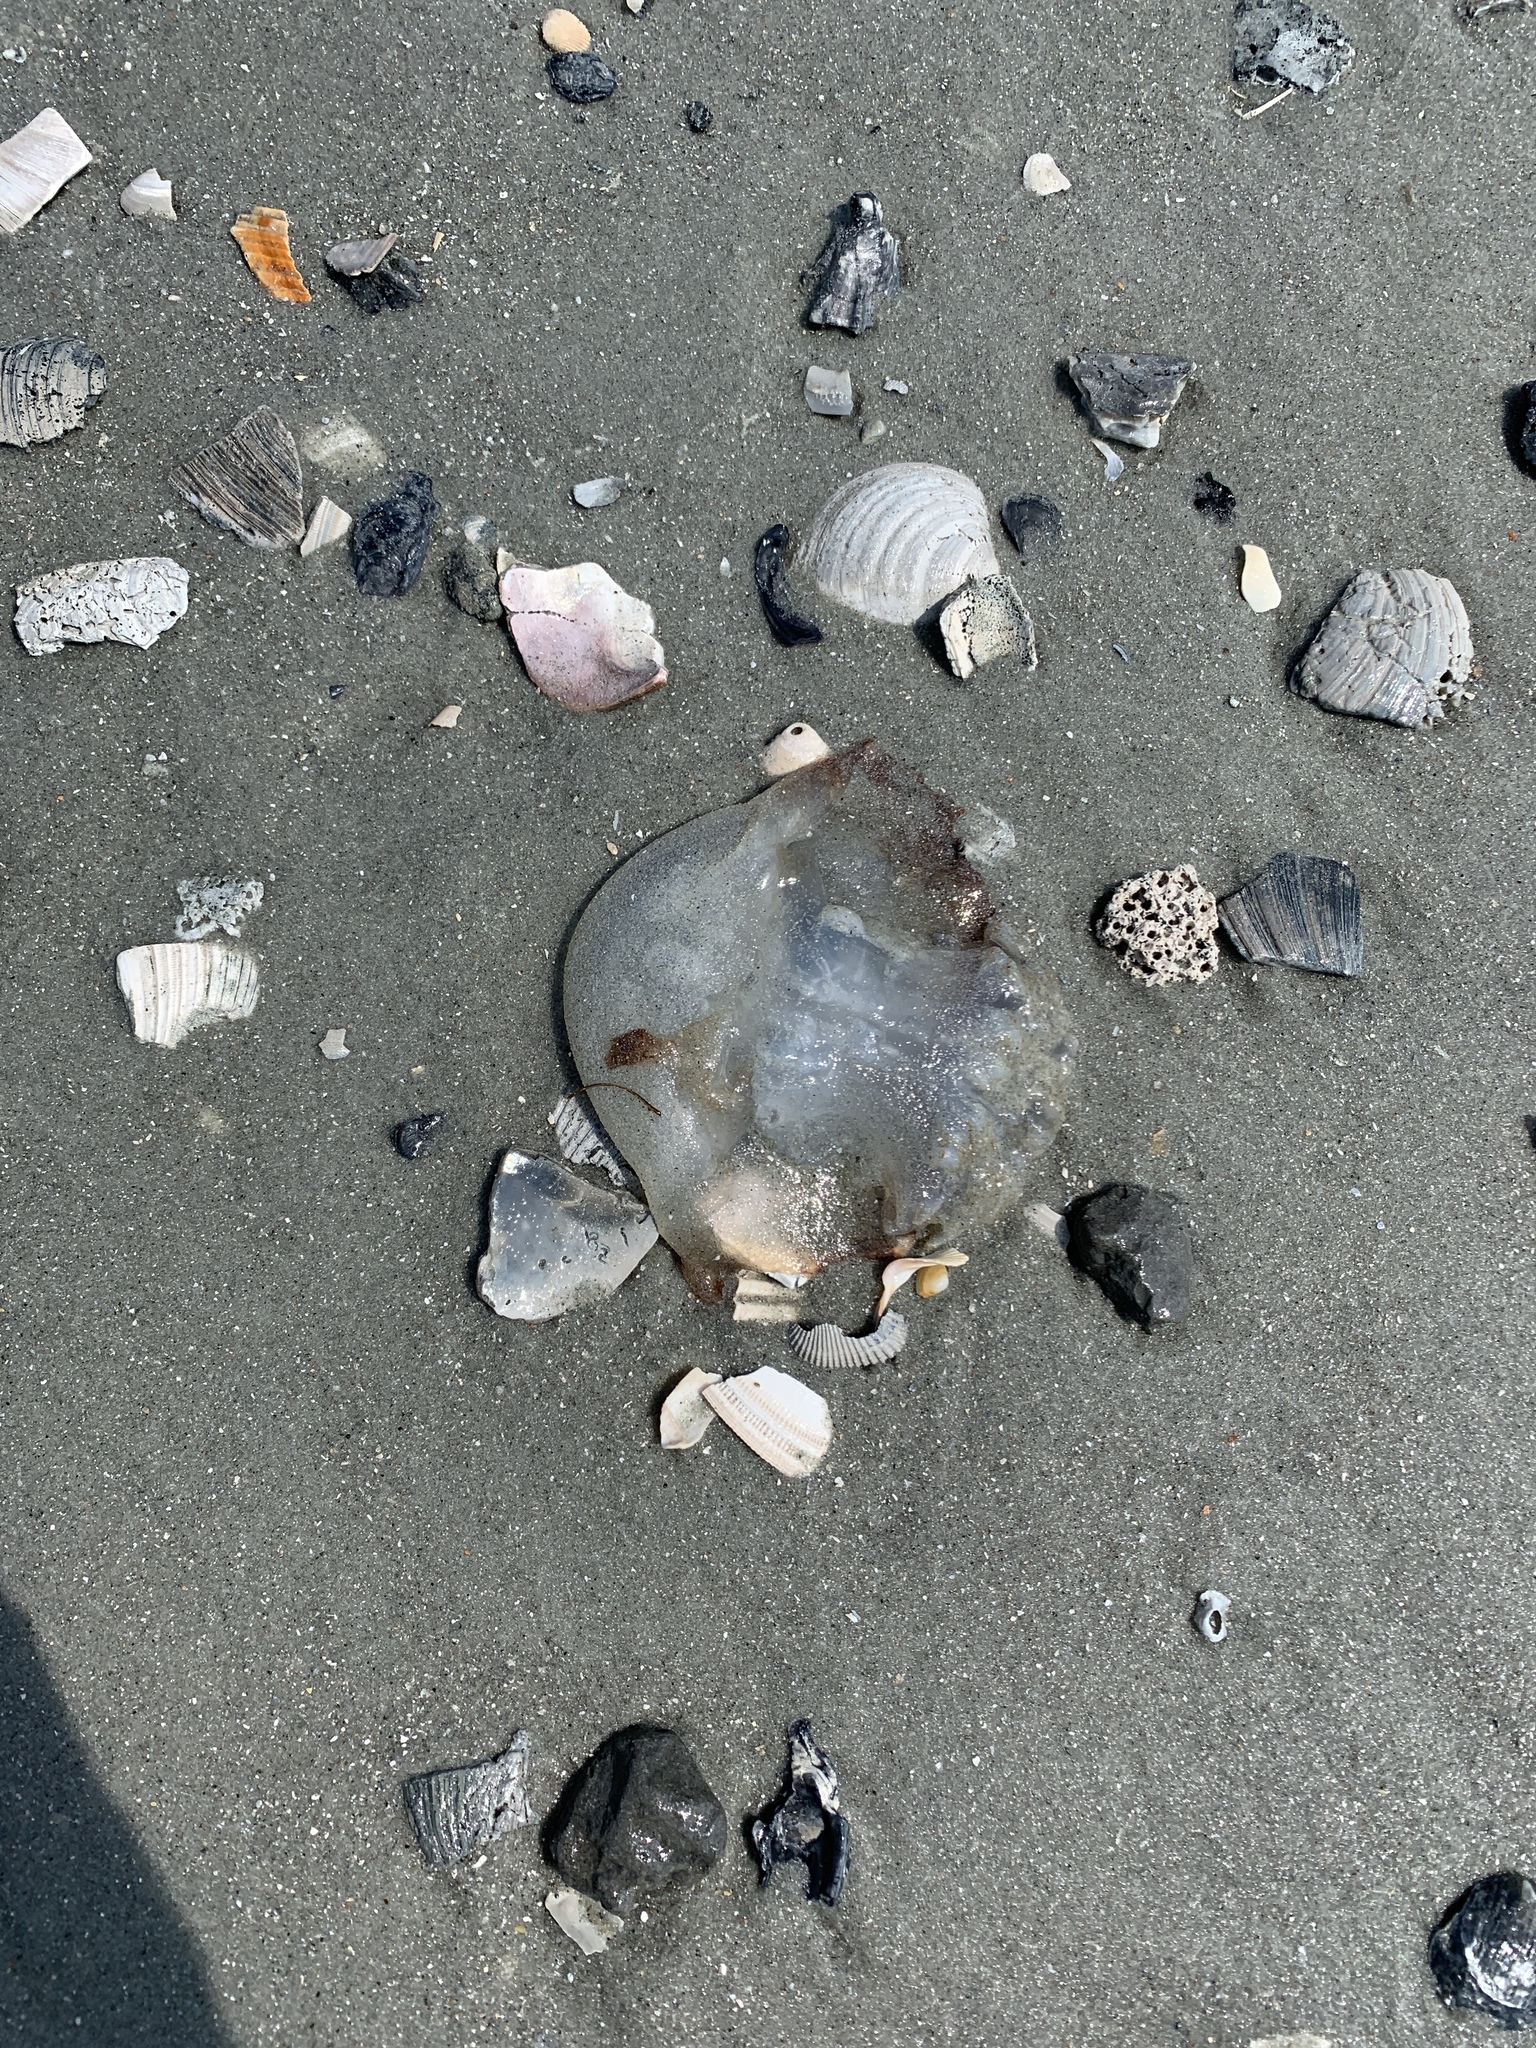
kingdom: Animalia
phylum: Cnidaria
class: Scyphozoa
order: Rhizostomeae
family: Stomolophidae
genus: Stomolophus
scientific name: Stomolophus meleagris
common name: Cabbagehead
